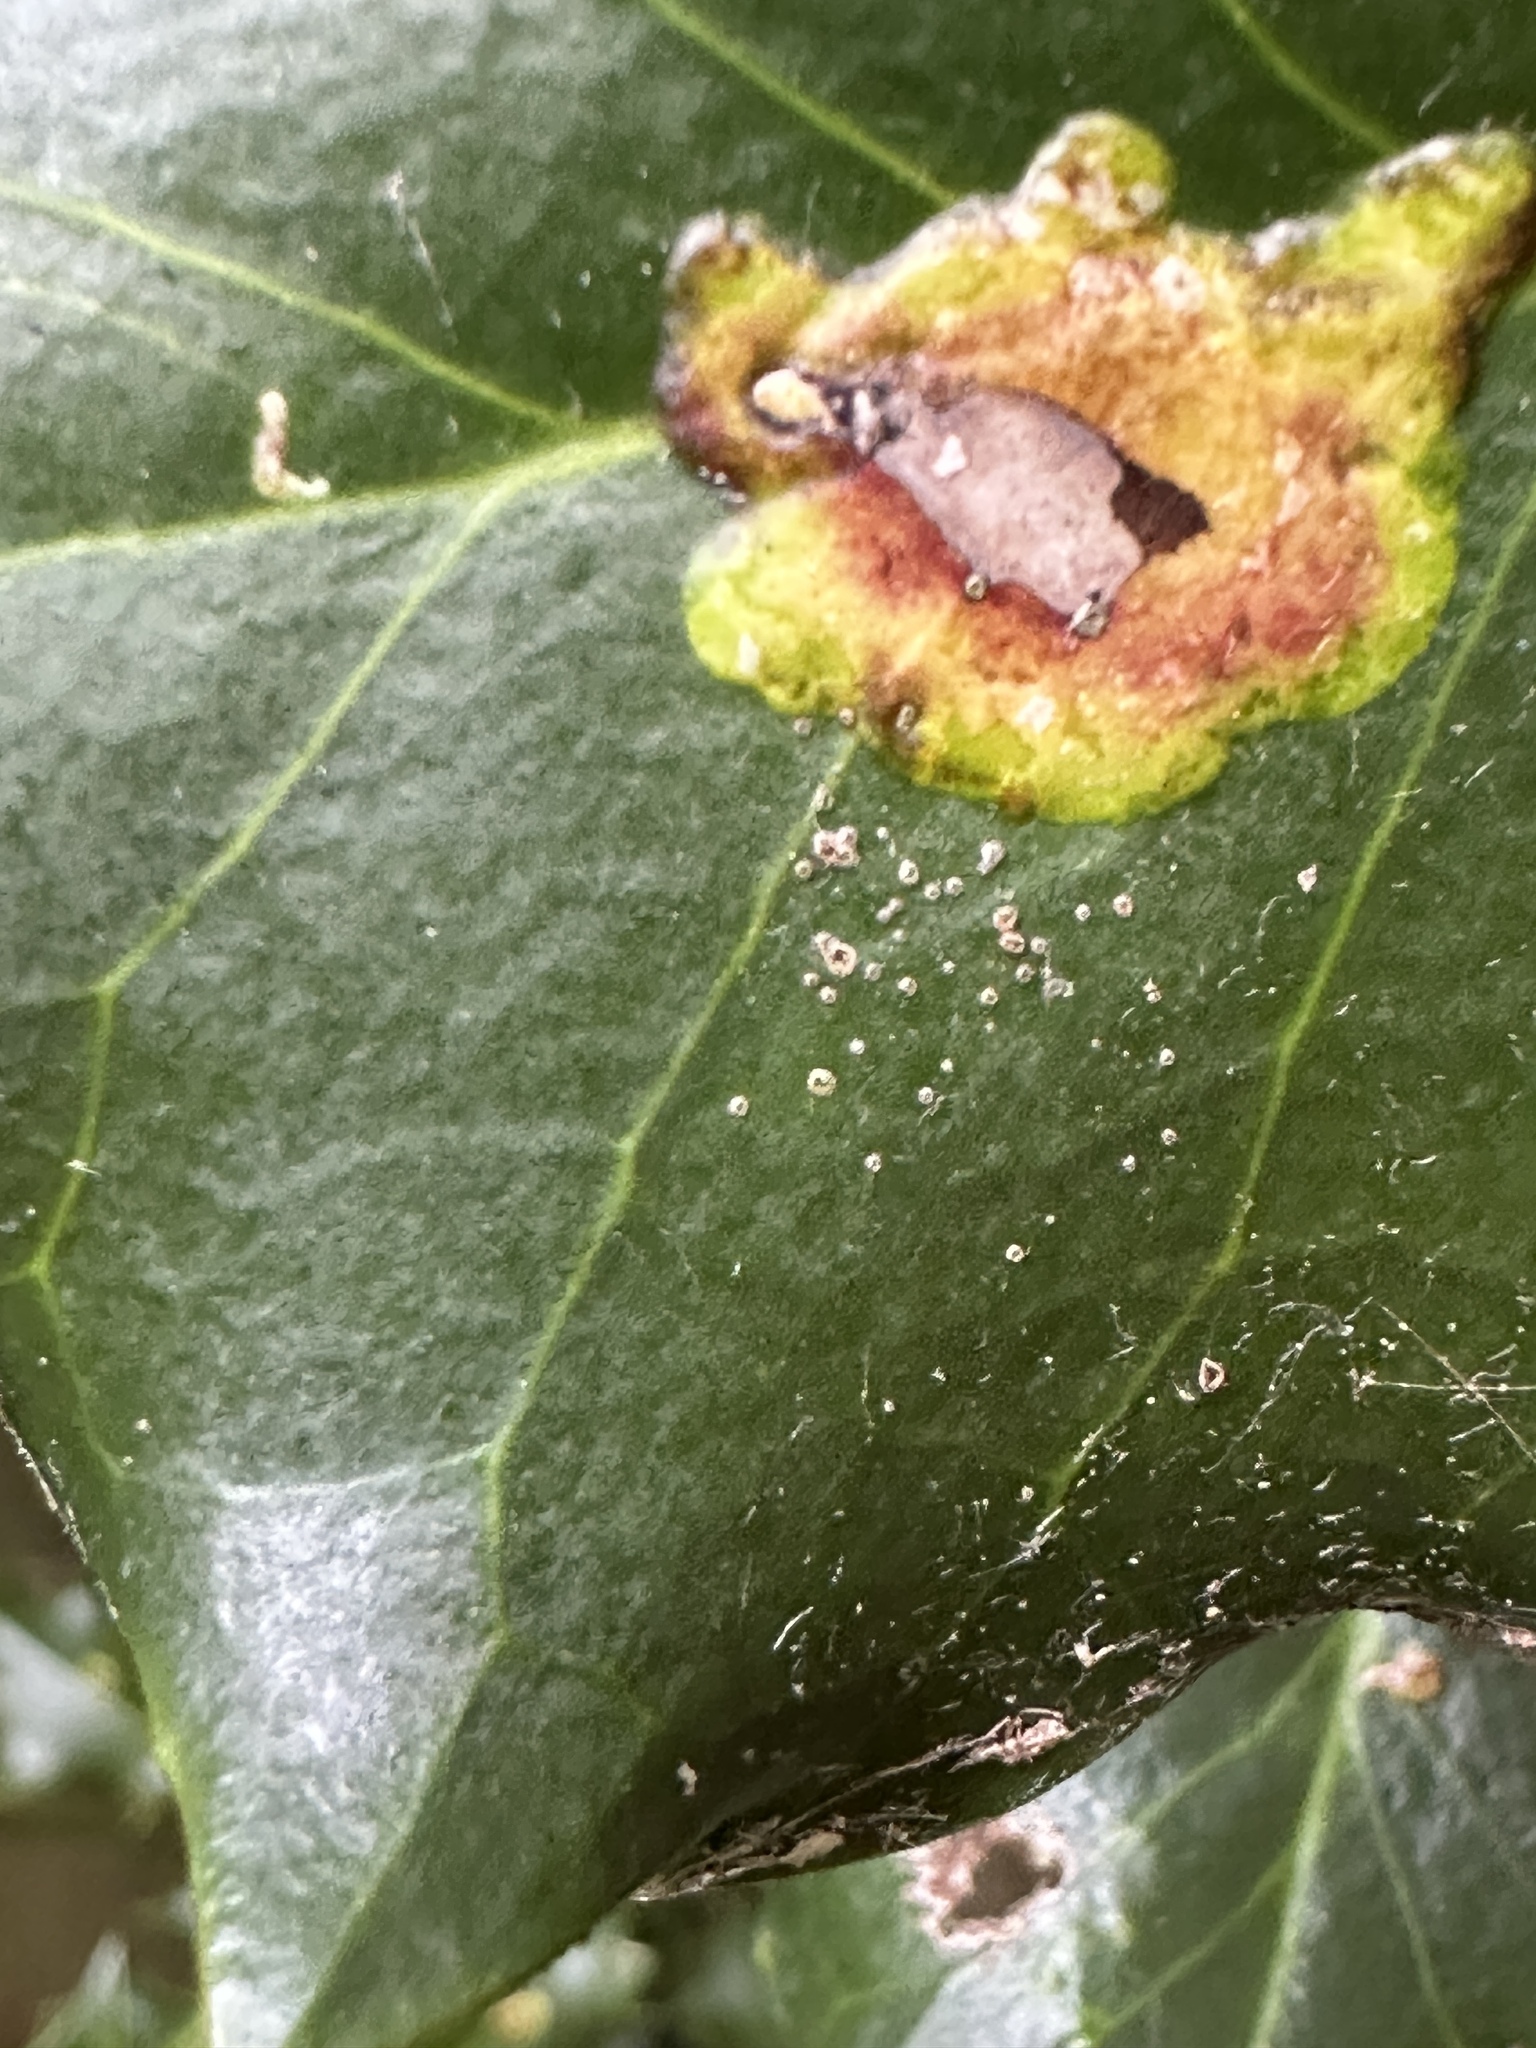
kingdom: Animalia
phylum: Arthropoda
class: Insecta
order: Diptera
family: Agromyzidae
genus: Phytomyza
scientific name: Phytomyza ilicis
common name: Holly leafminer
